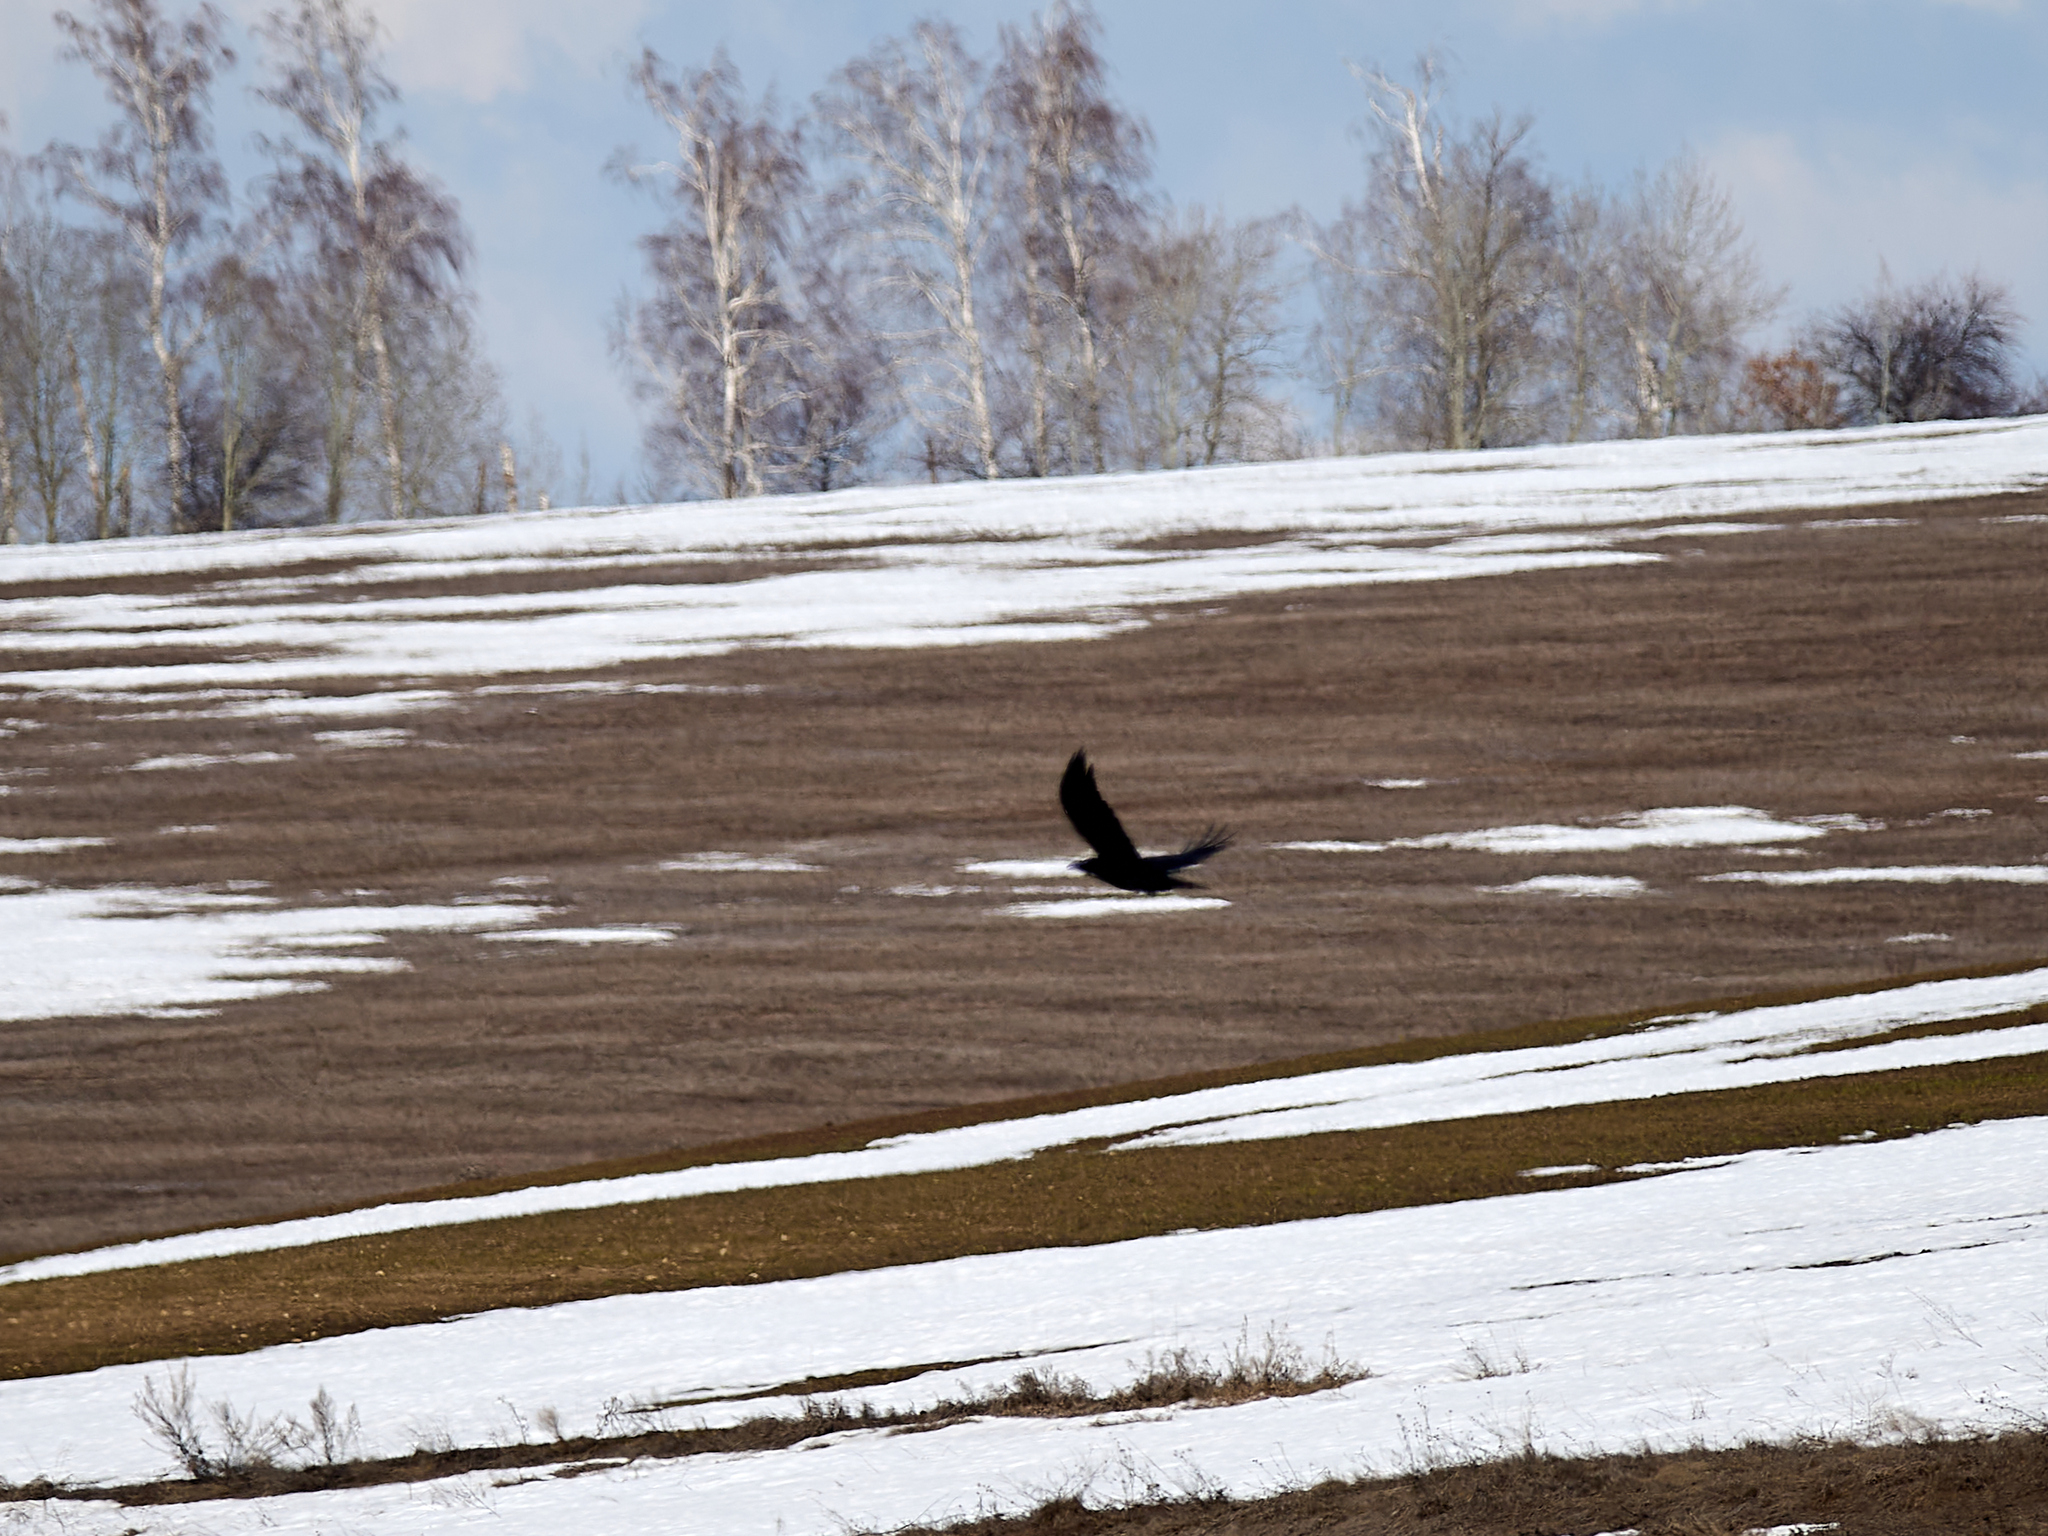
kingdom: Animalia
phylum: Chordata
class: Aves
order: Passeriformes
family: Corvidae
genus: Corvus
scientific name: Corvus corax
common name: Common raven
